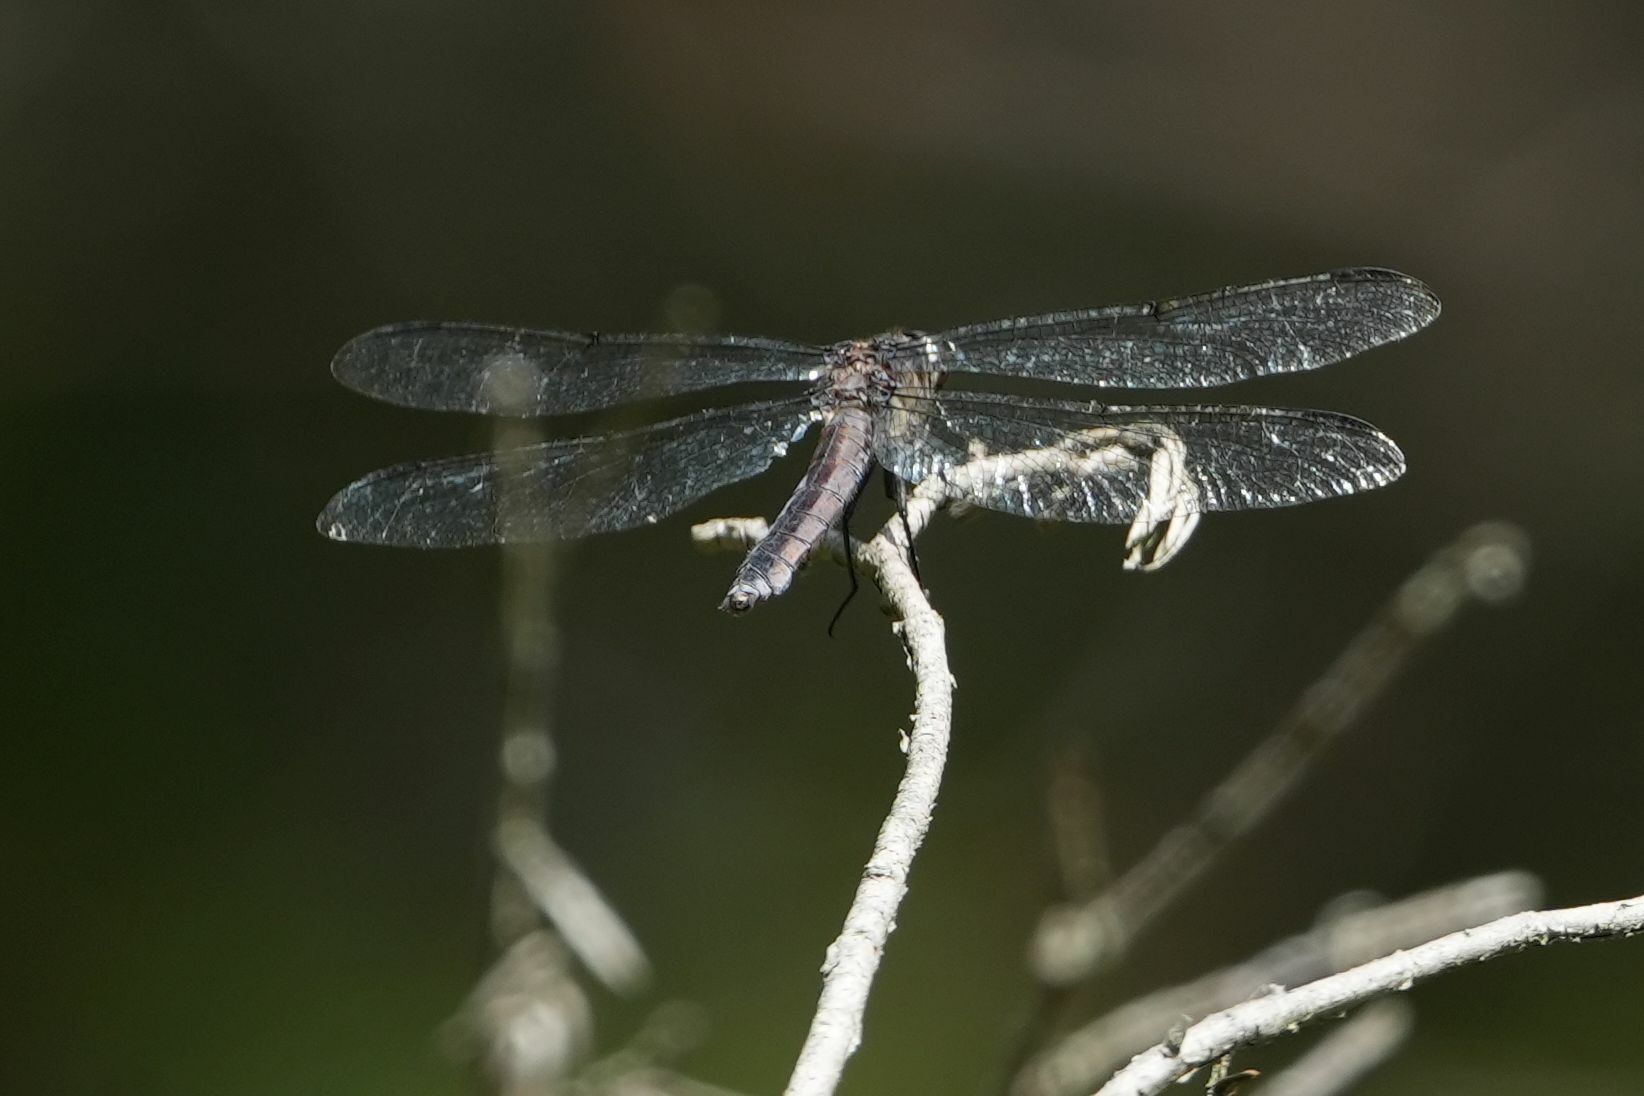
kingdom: Animalia
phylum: Arthropoda
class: Insecta
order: Odonata
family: Libellulidae
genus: Libellula
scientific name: Libellula incesta
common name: Slaty skimmer
